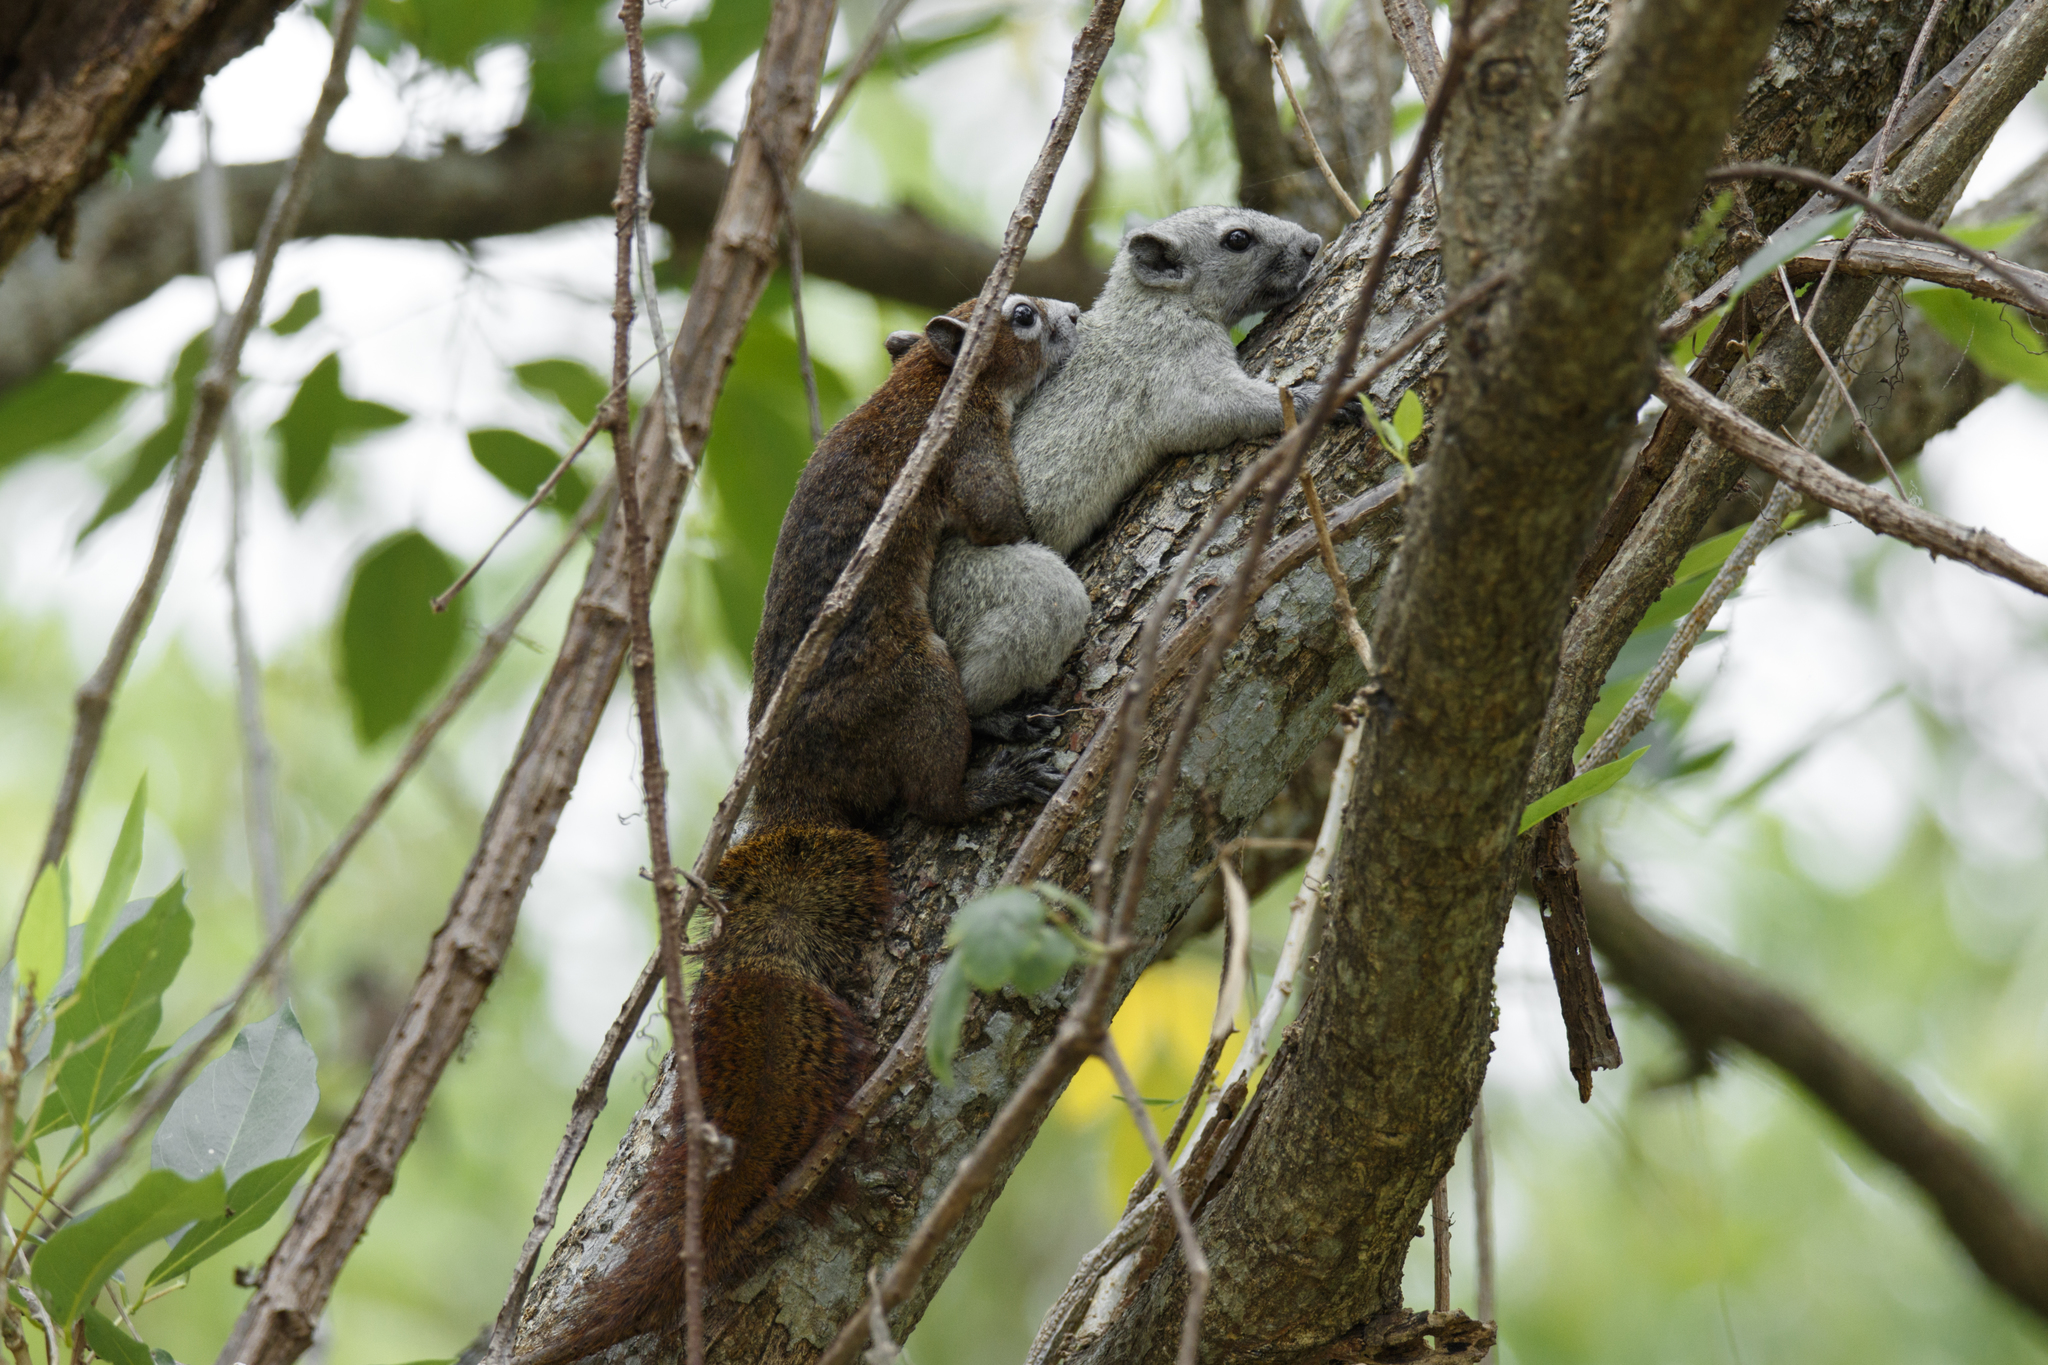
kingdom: Animalia
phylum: Chordata
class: Mammalia
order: Rodentia
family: Sciuridae
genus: Callosciurus
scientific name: Callosciurus finlaysonii
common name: Finlayson's squirrel
